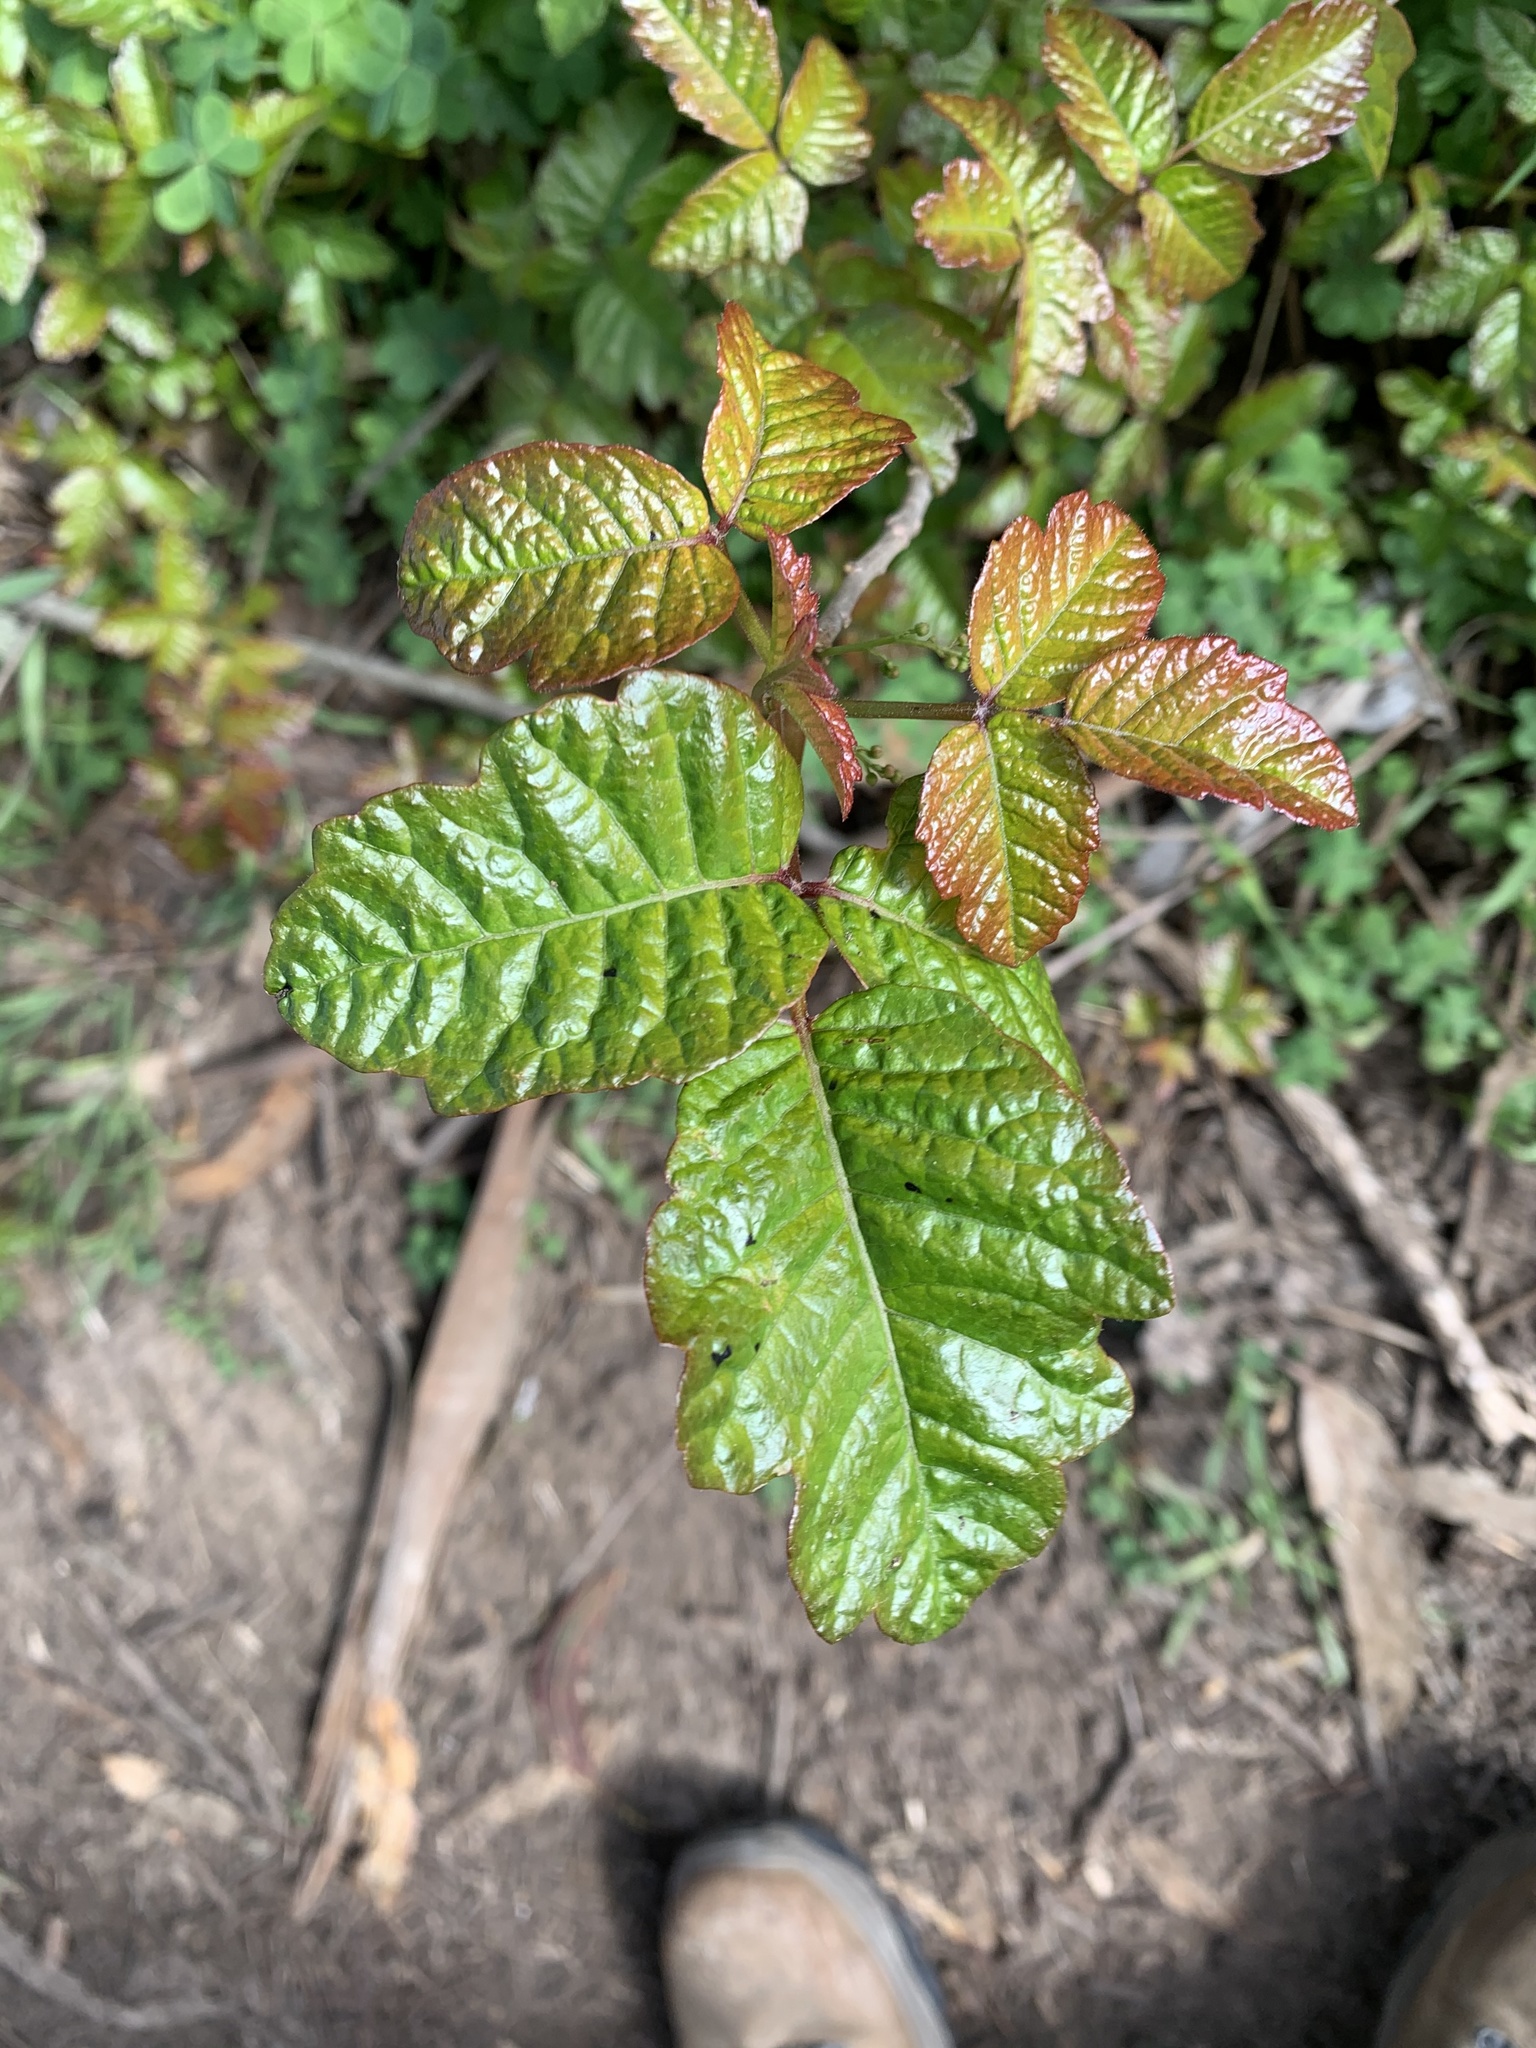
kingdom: Plantae
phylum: Tracheophyta
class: Magnoliopsida
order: Sapindales
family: Anacardiaceae
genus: Toxicodendron
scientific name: Toxicodendron diversilobum
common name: Pacific poison-oak
